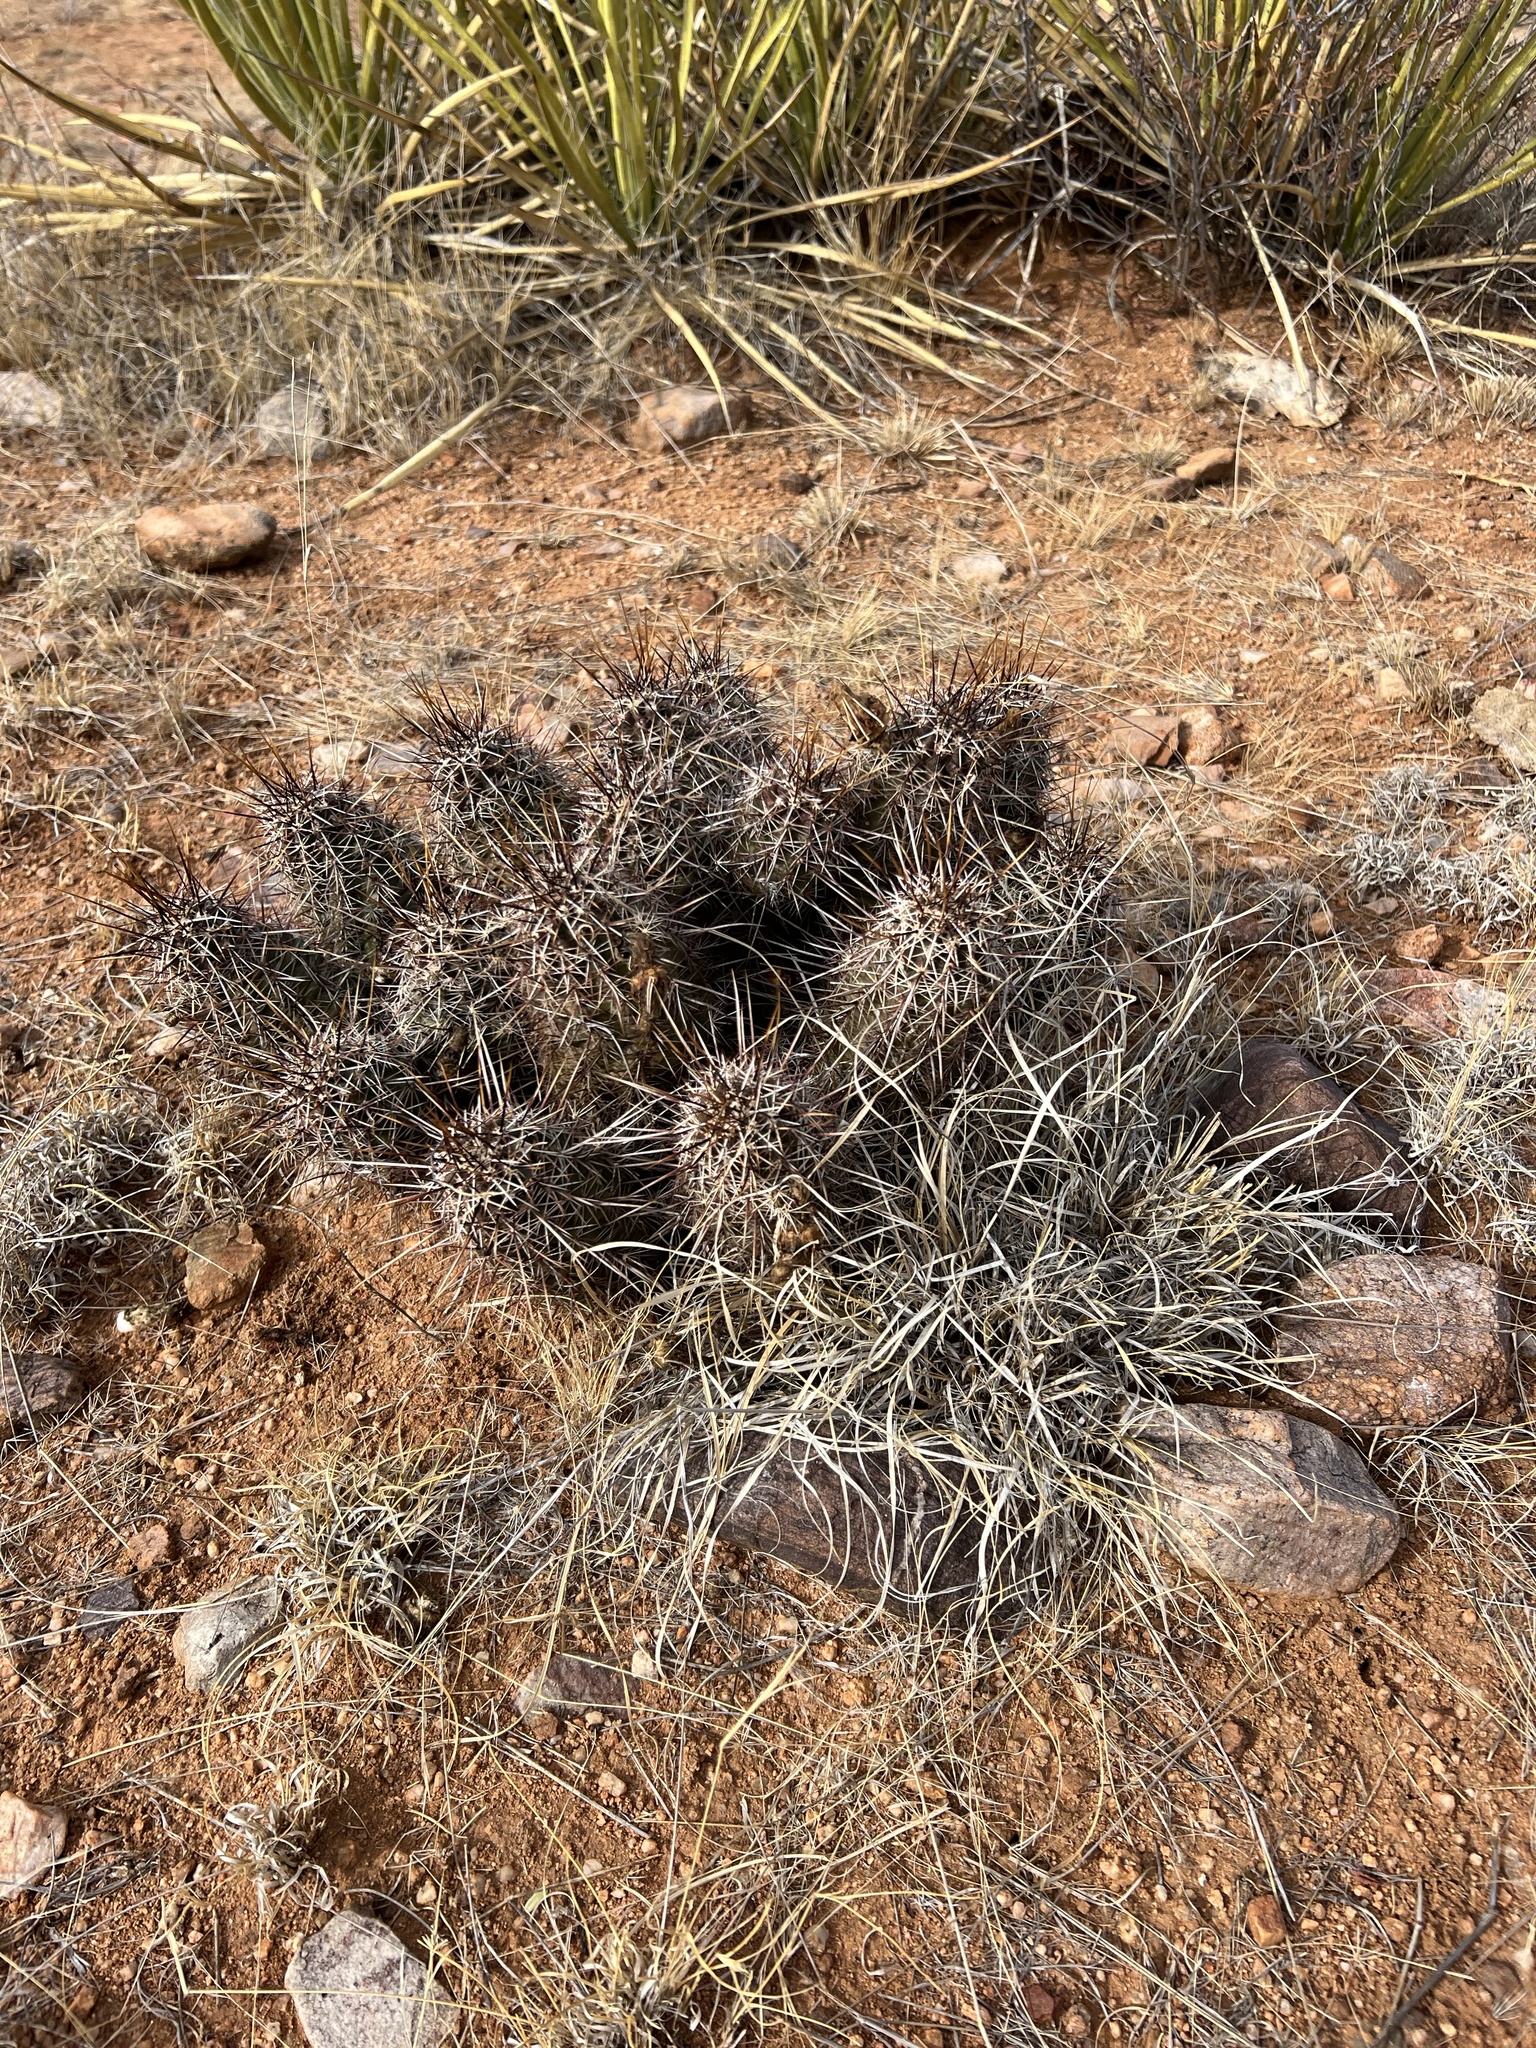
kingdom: Plantae
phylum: Tracheophyta
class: Magnoliopsida
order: Caryophyllales
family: Cactaceae
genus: Echinocereus
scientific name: Echinocereus fasciculatus
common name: Bundle hedgehog
